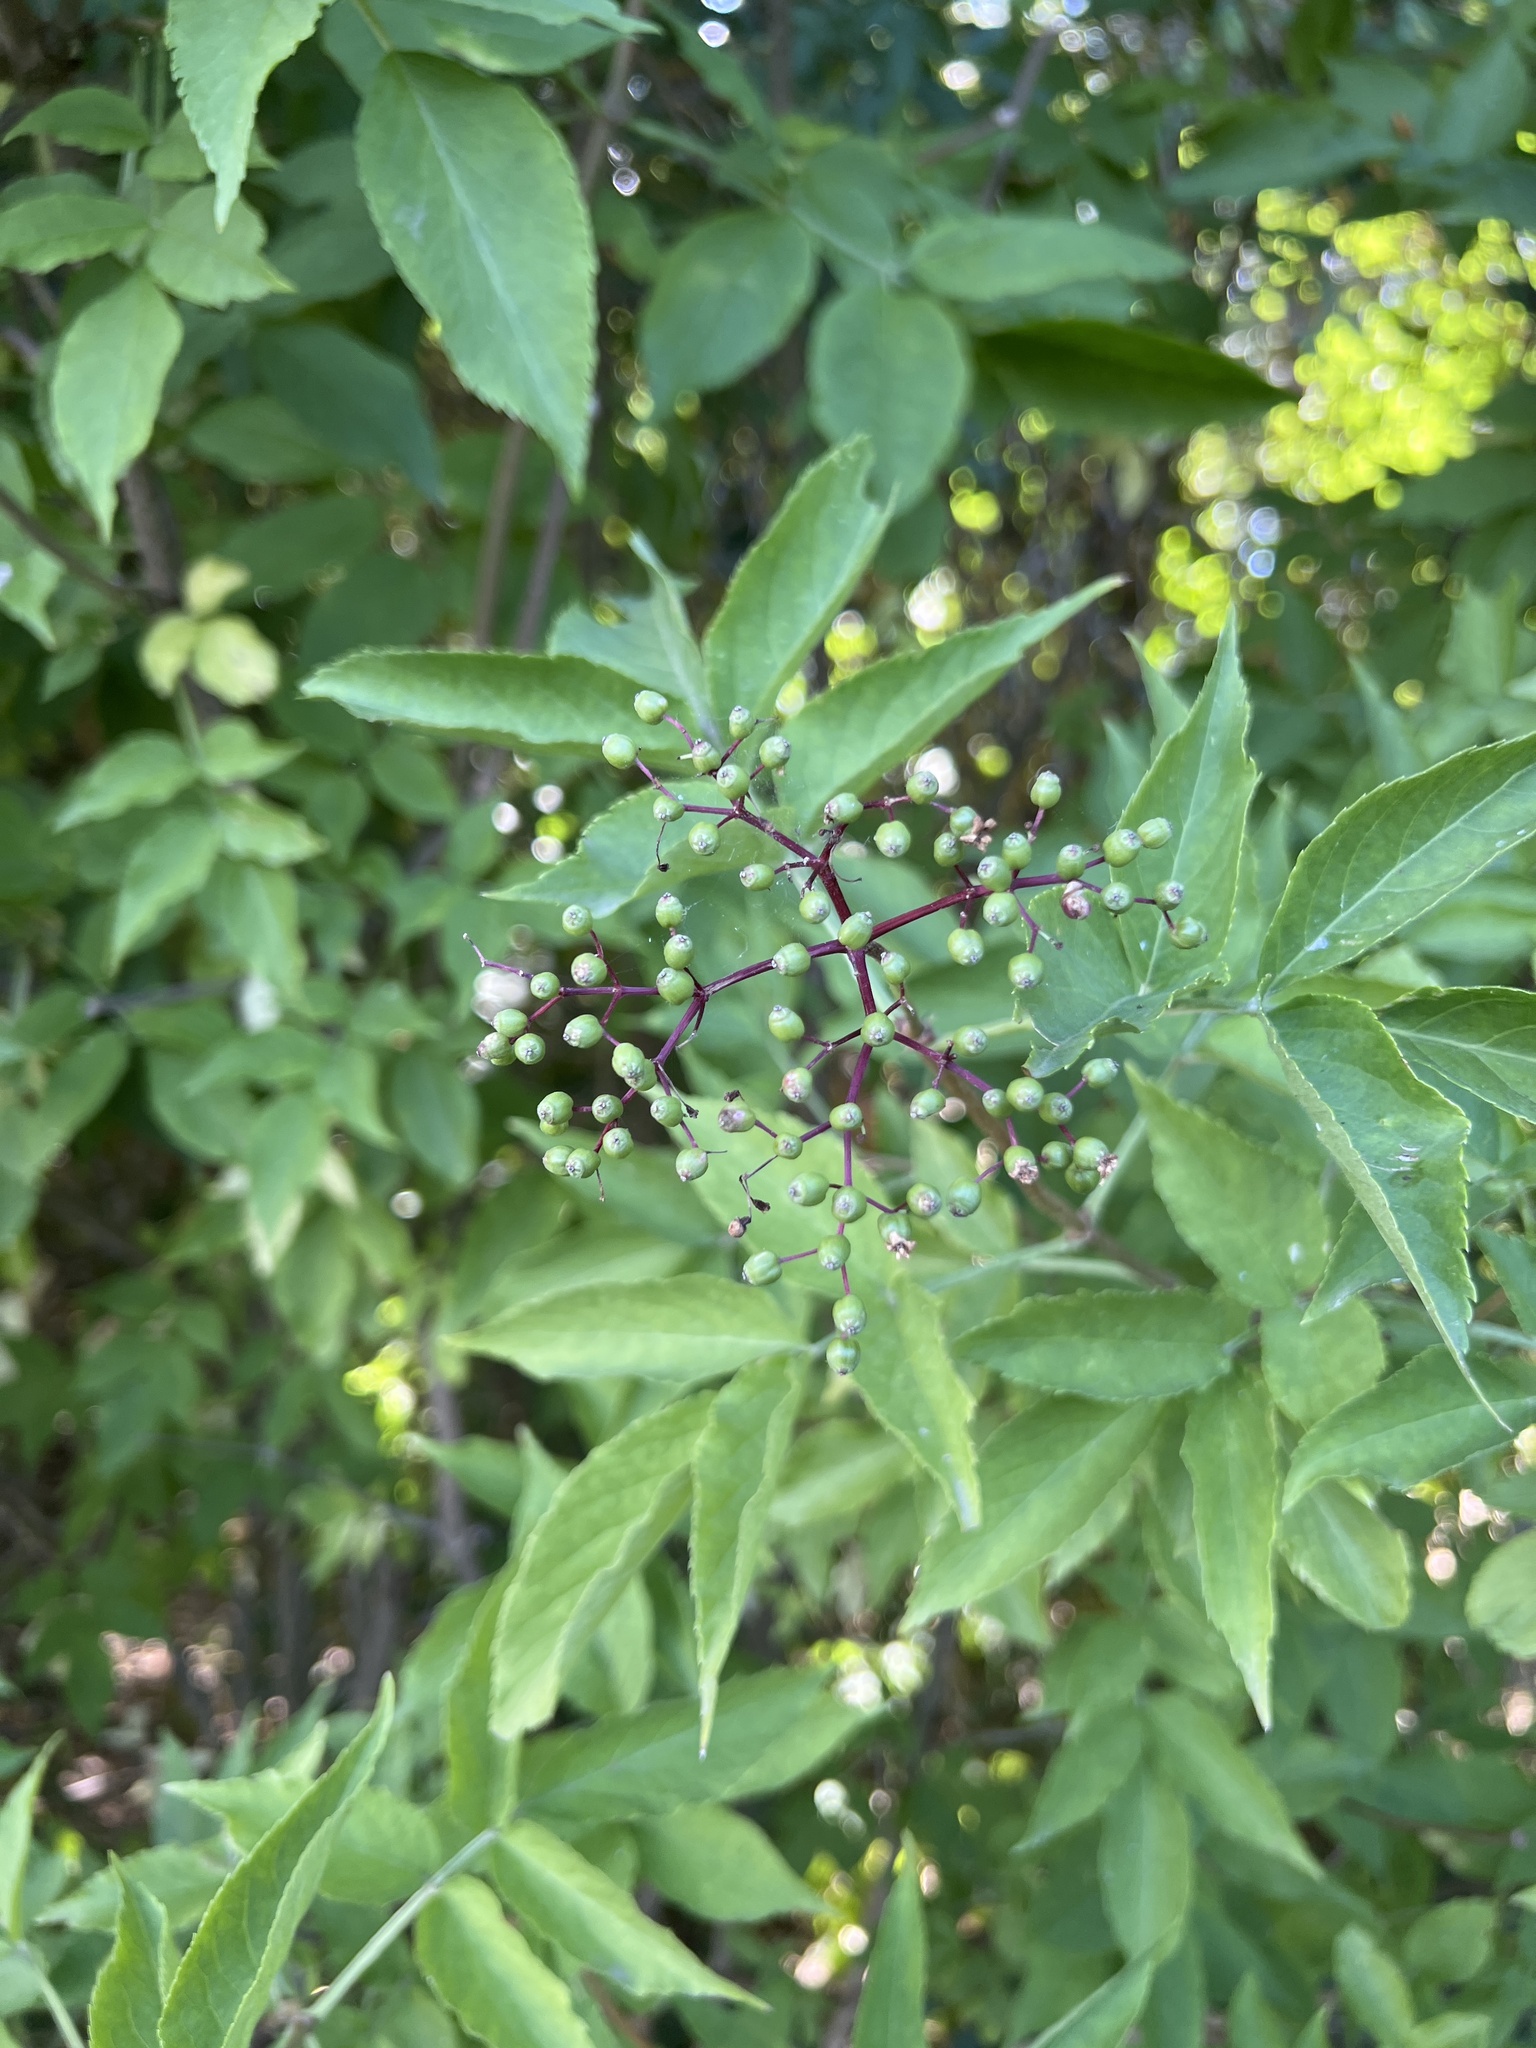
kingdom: Plantae
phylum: Tracheophyta
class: Magnoliopsida
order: Dipsacales
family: Viburnaceae
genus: Sambucus
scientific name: Sambucus nigra
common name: Elder
